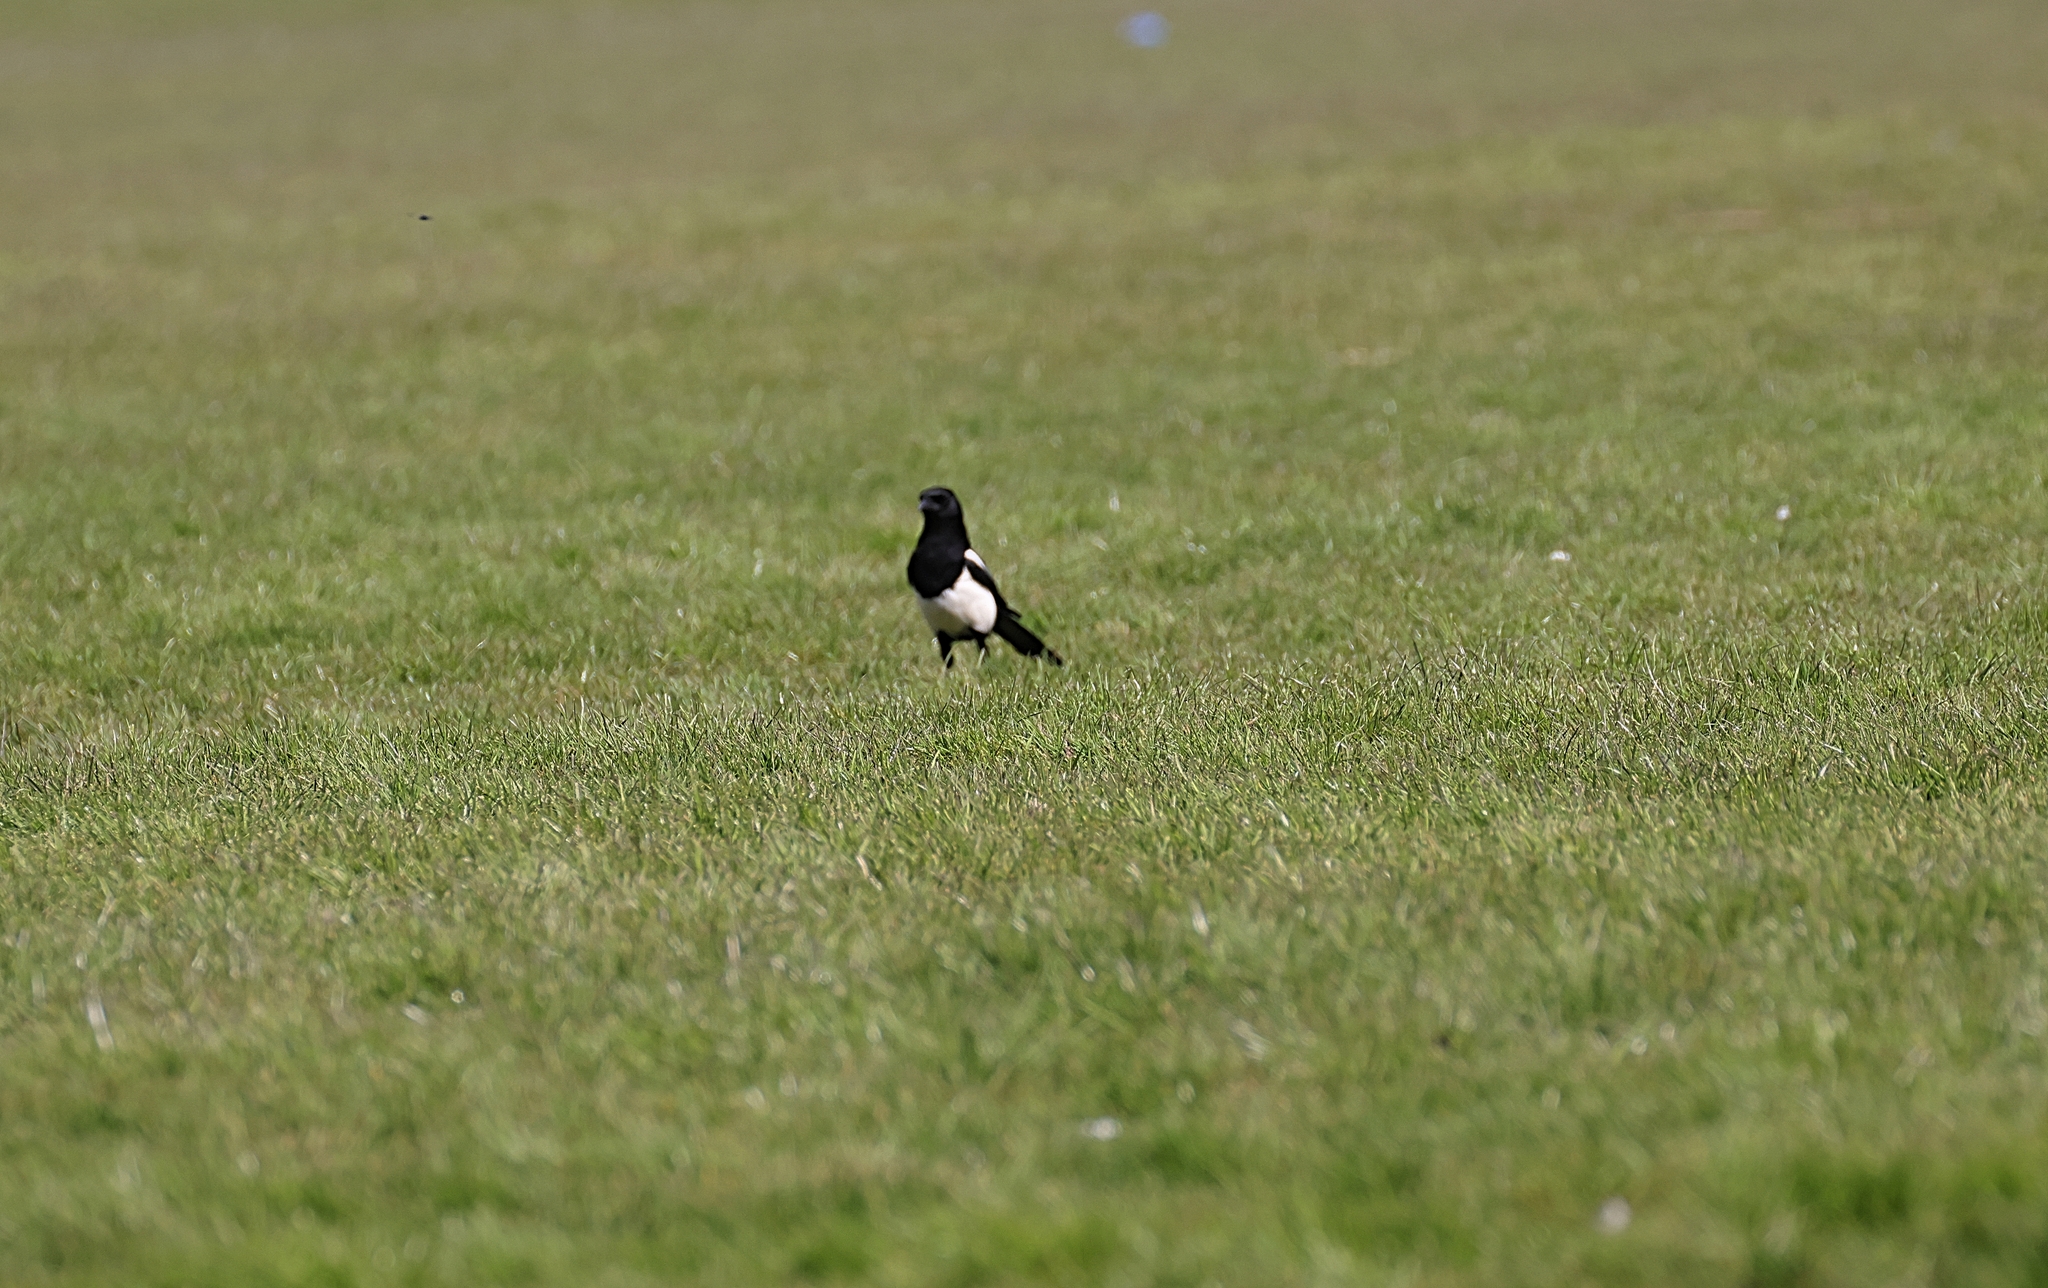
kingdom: Animalia
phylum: Chordata
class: Aves
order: Passeriformes
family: Corvidae
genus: Pica
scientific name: Pica pica
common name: Eurasian magpie
